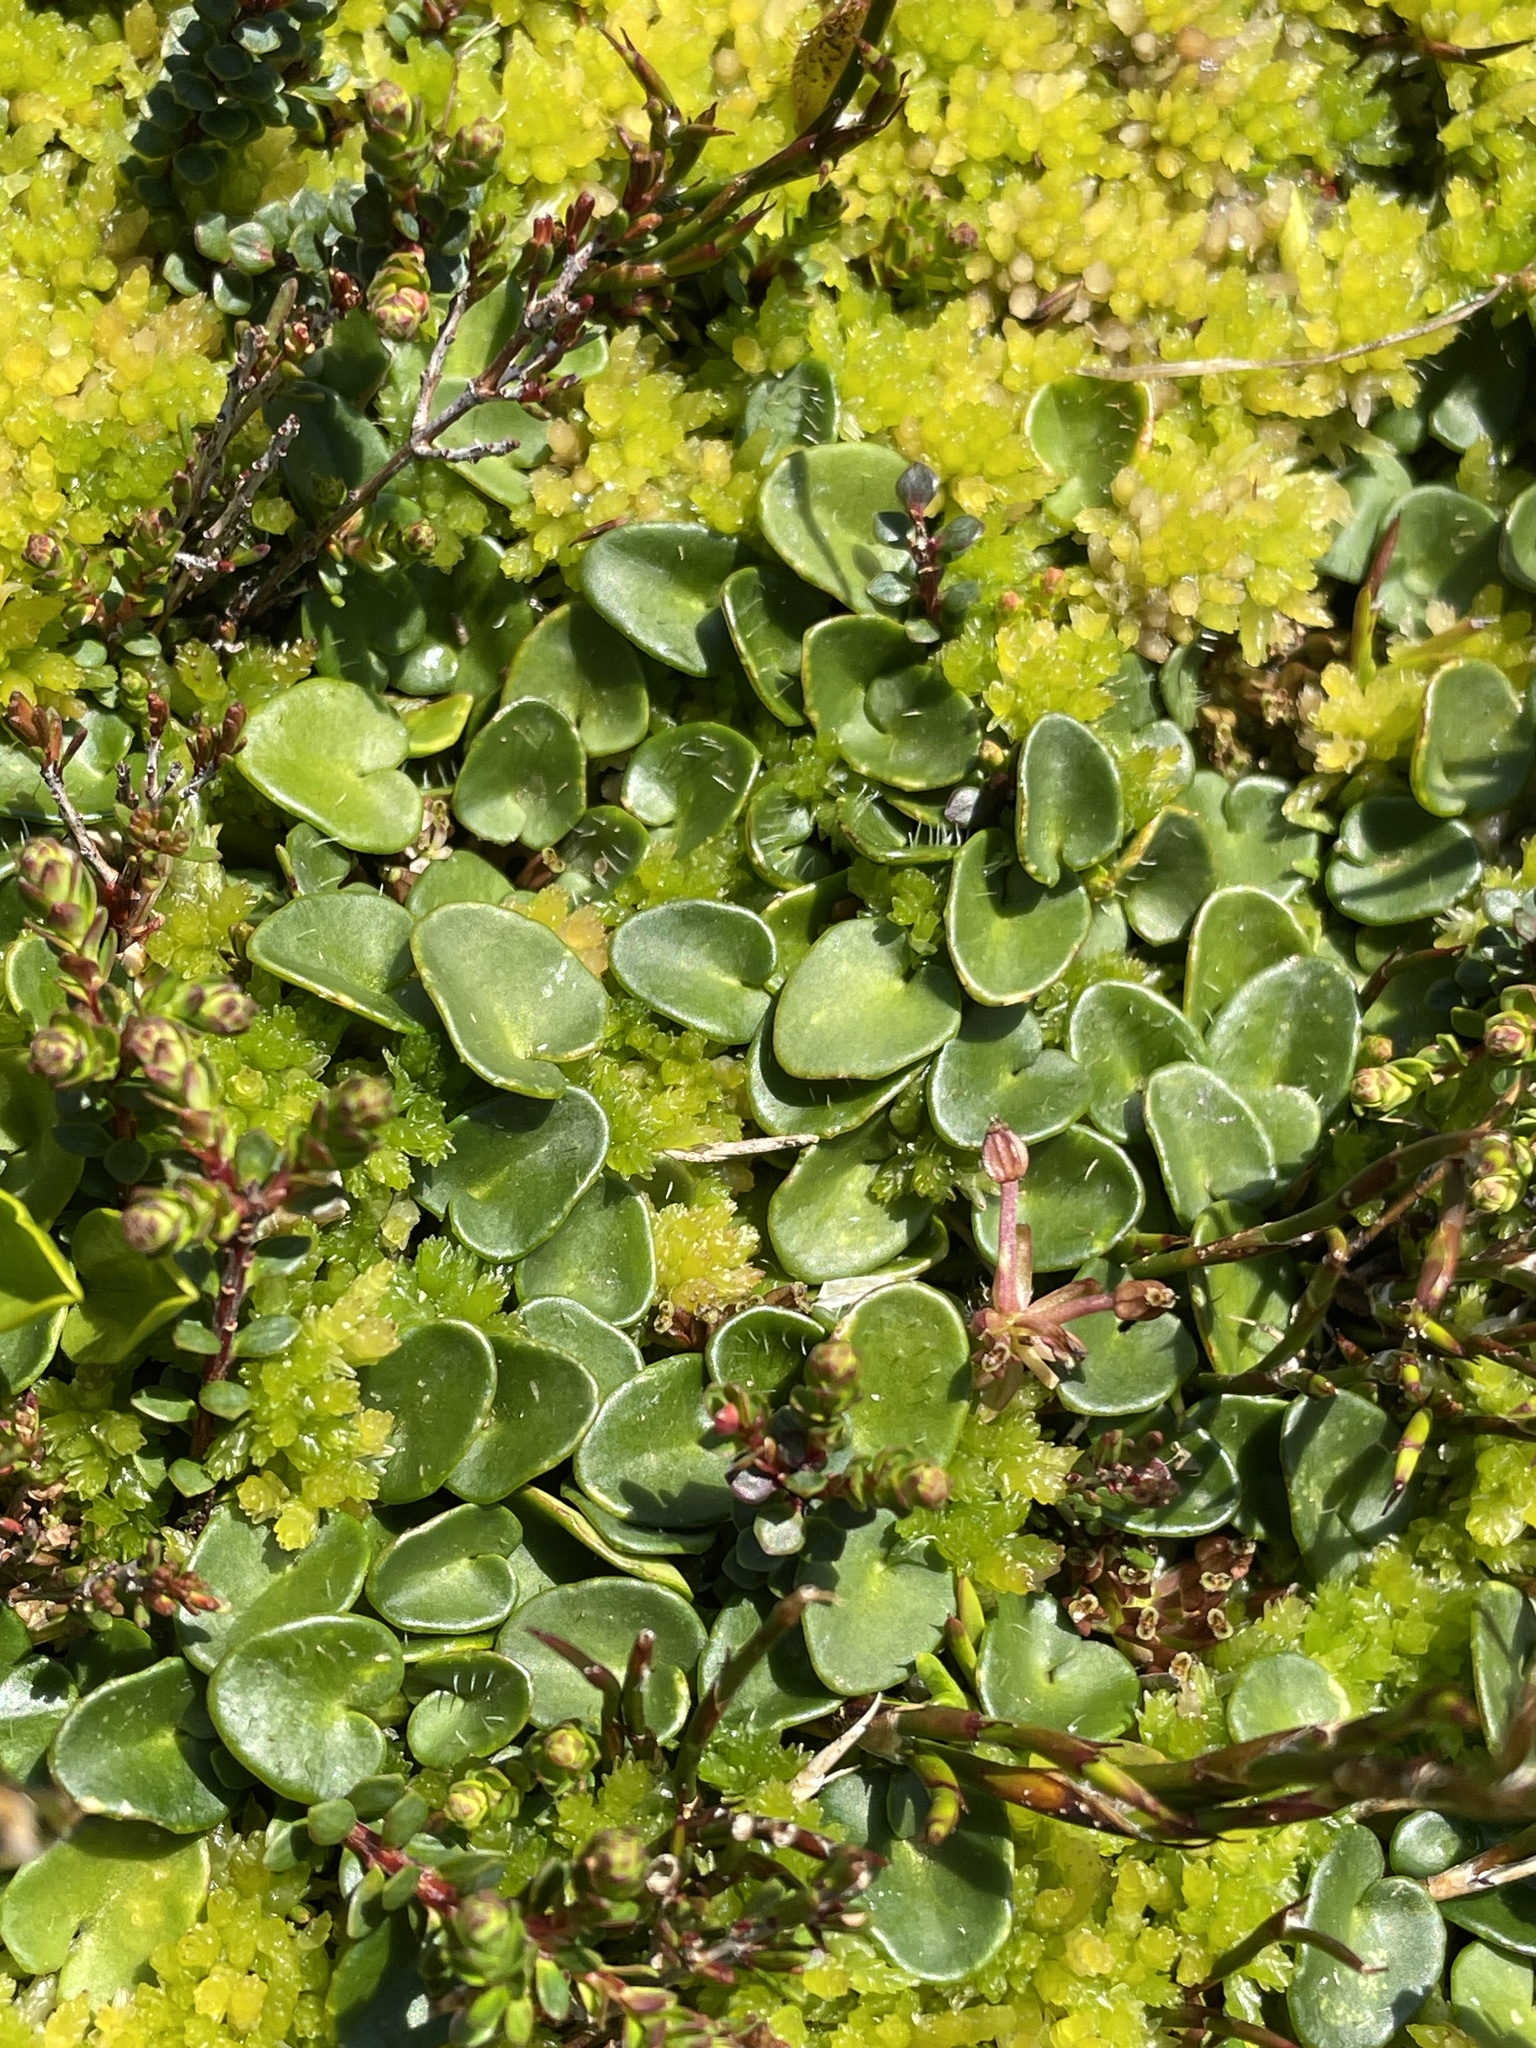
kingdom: Plantae
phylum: Tracheophyta
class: Magnoliopsida
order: Apiales
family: Apiaceae
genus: Diplaspis
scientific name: Diplaspis nivis
